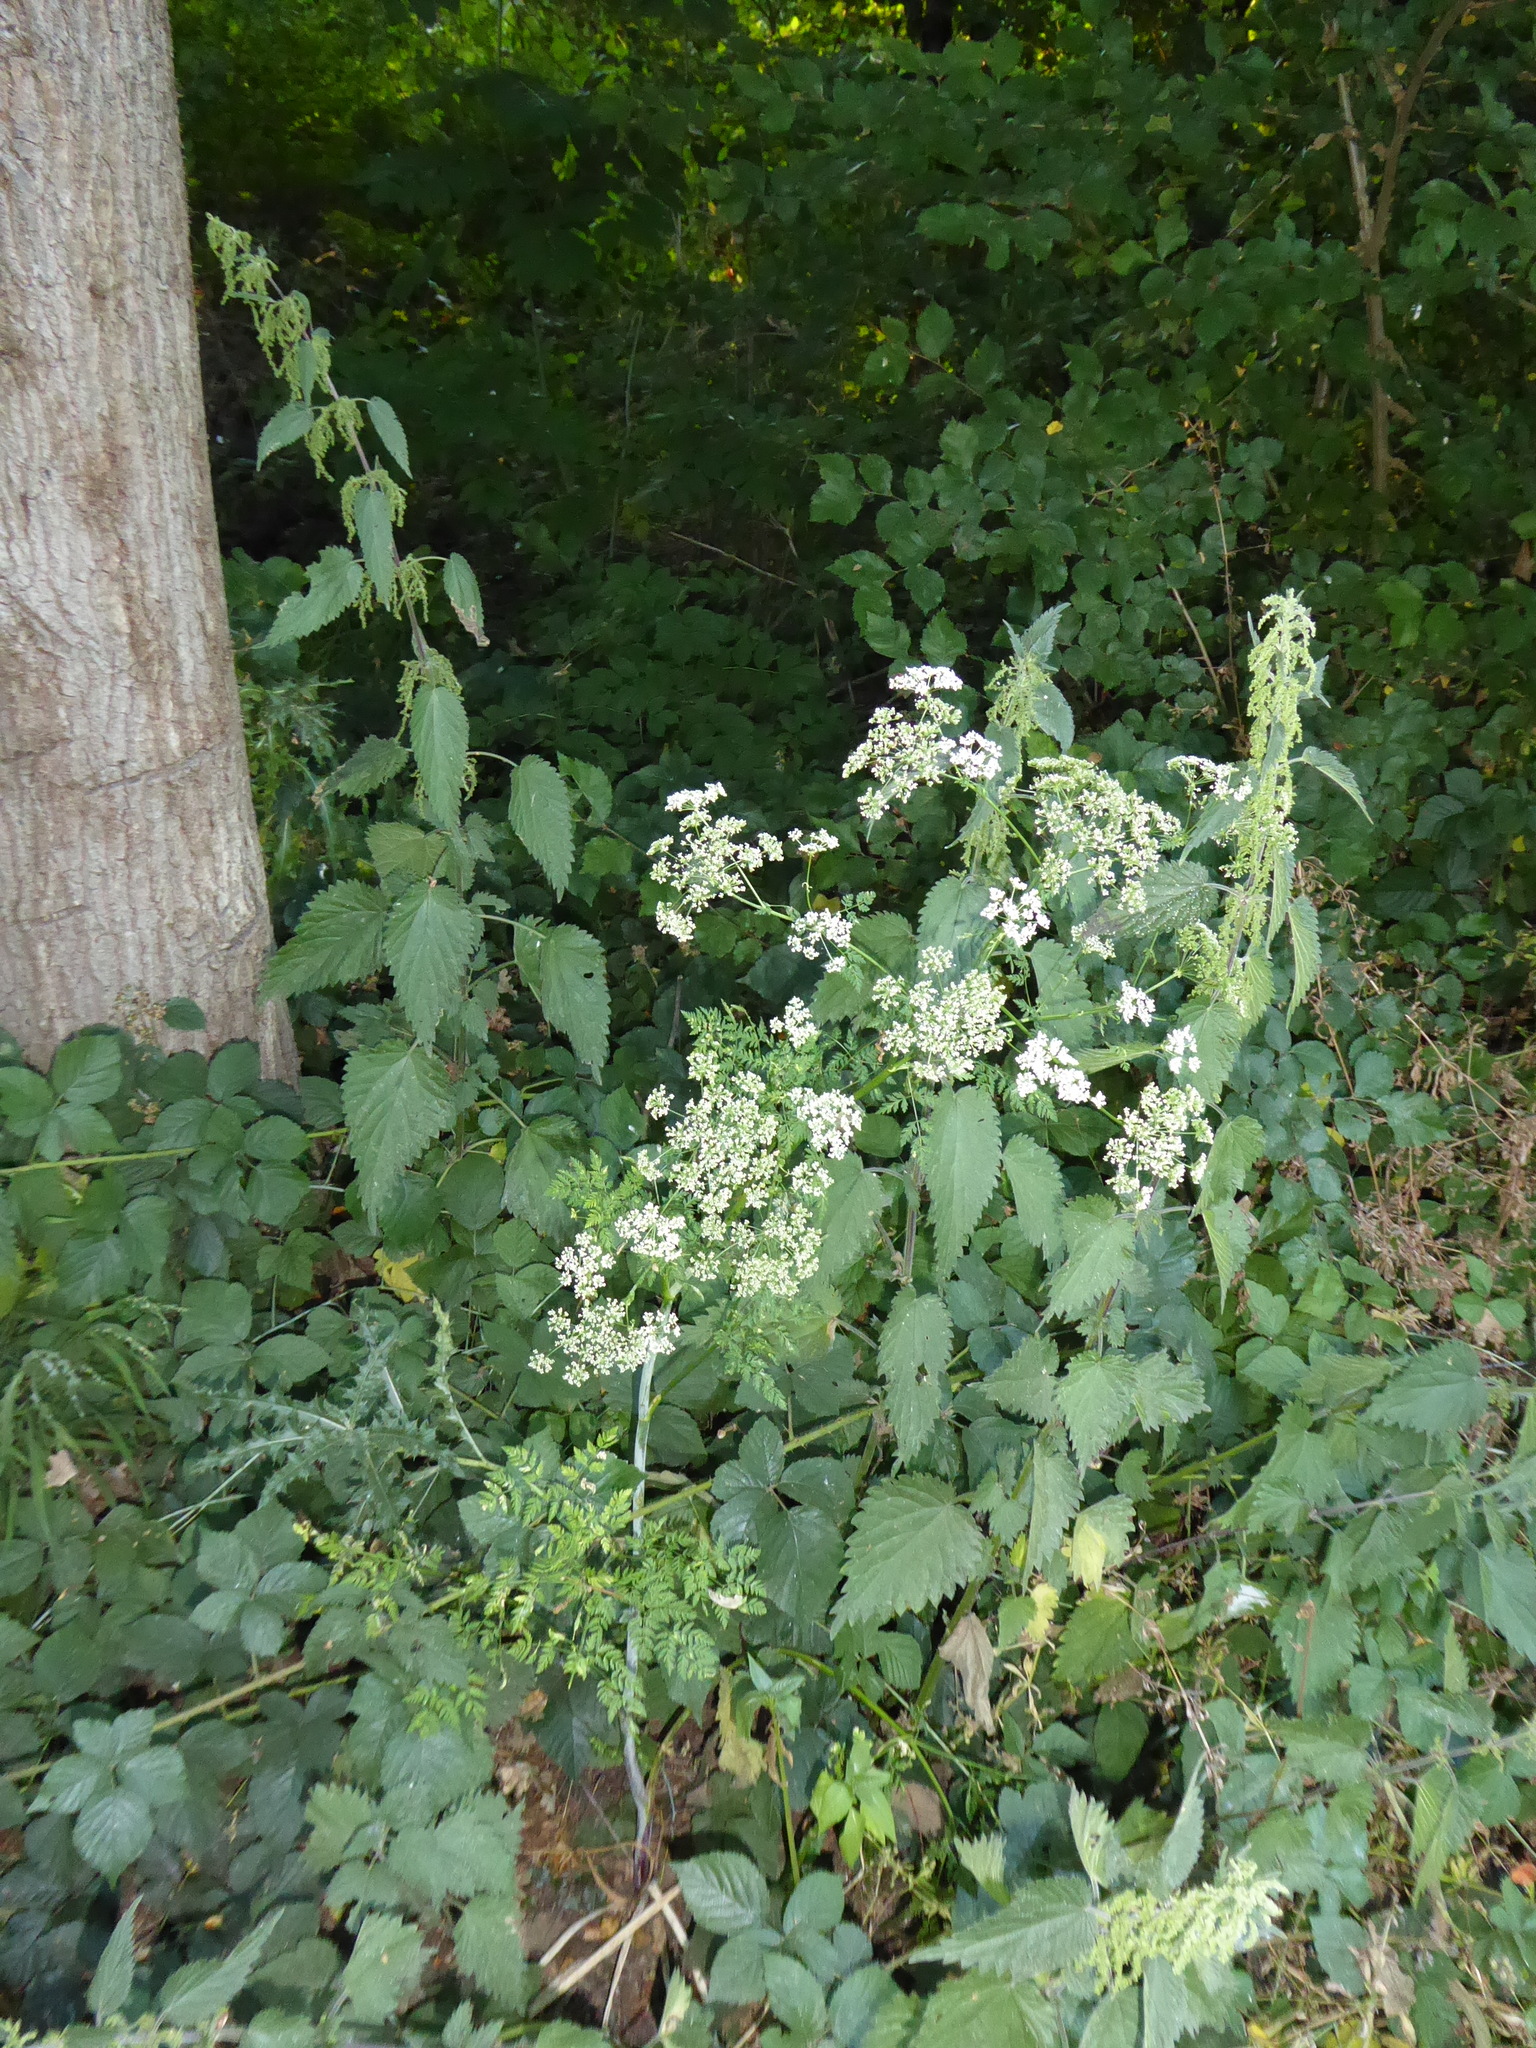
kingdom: Plantae
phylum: Tracheophyta
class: Magnoliopsida
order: Apiales
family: Apiaceae
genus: Conium
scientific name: Conium maculatum
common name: Hemlock
